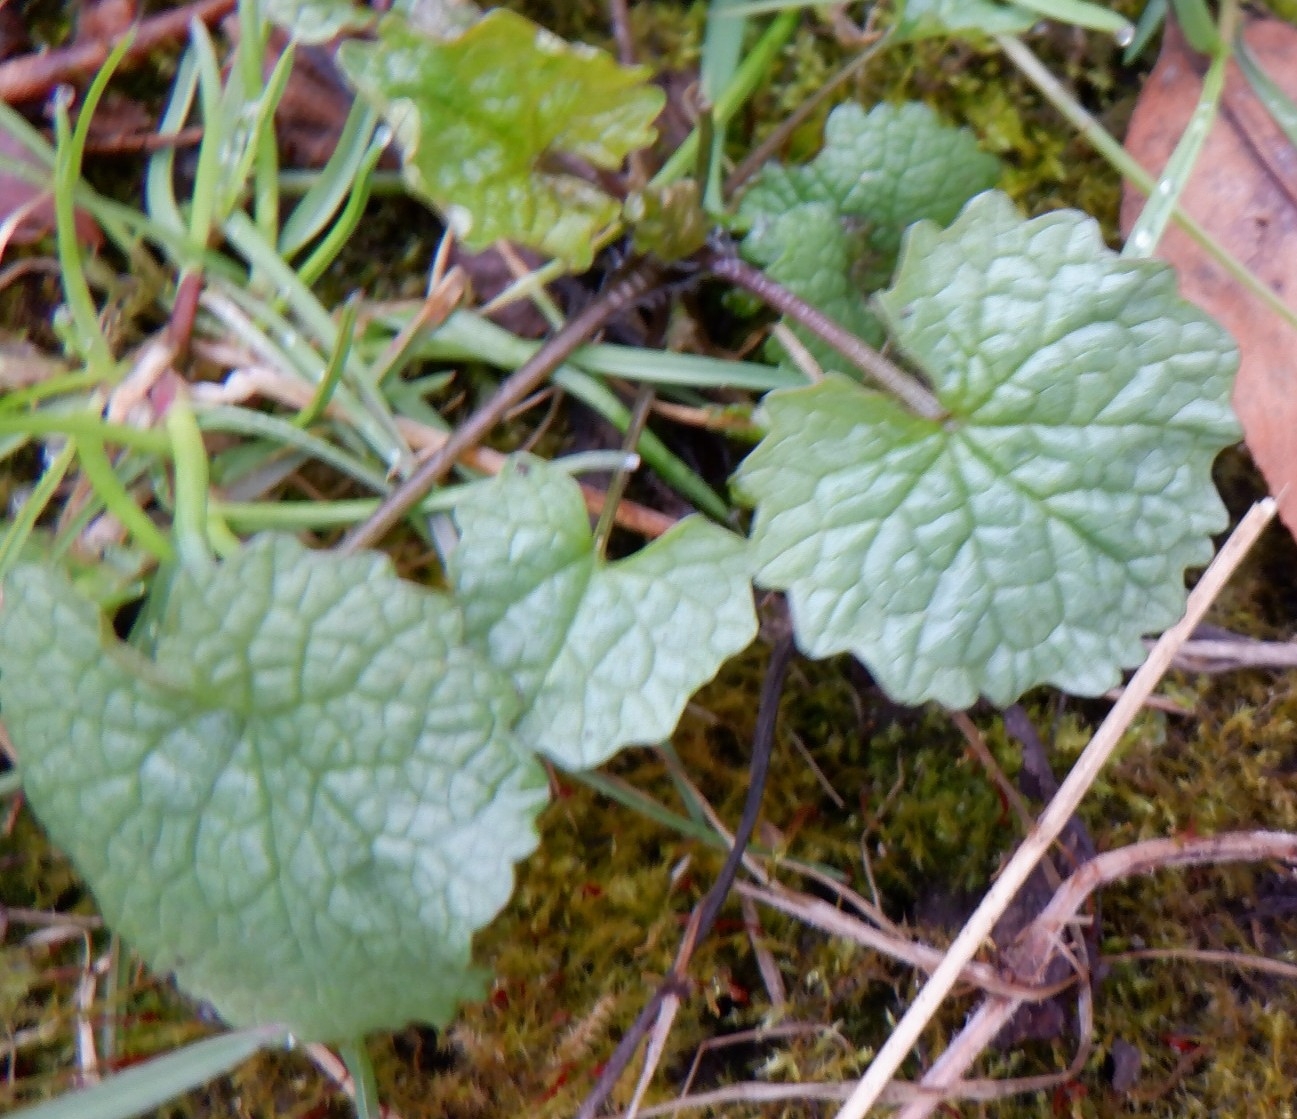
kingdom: Plantae
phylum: Tracheophyta
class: Magnoliopsida
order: Brassicales
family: Brassicaceae
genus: Alliaria
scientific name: Alliaria petiolata
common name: Garlic mustard
